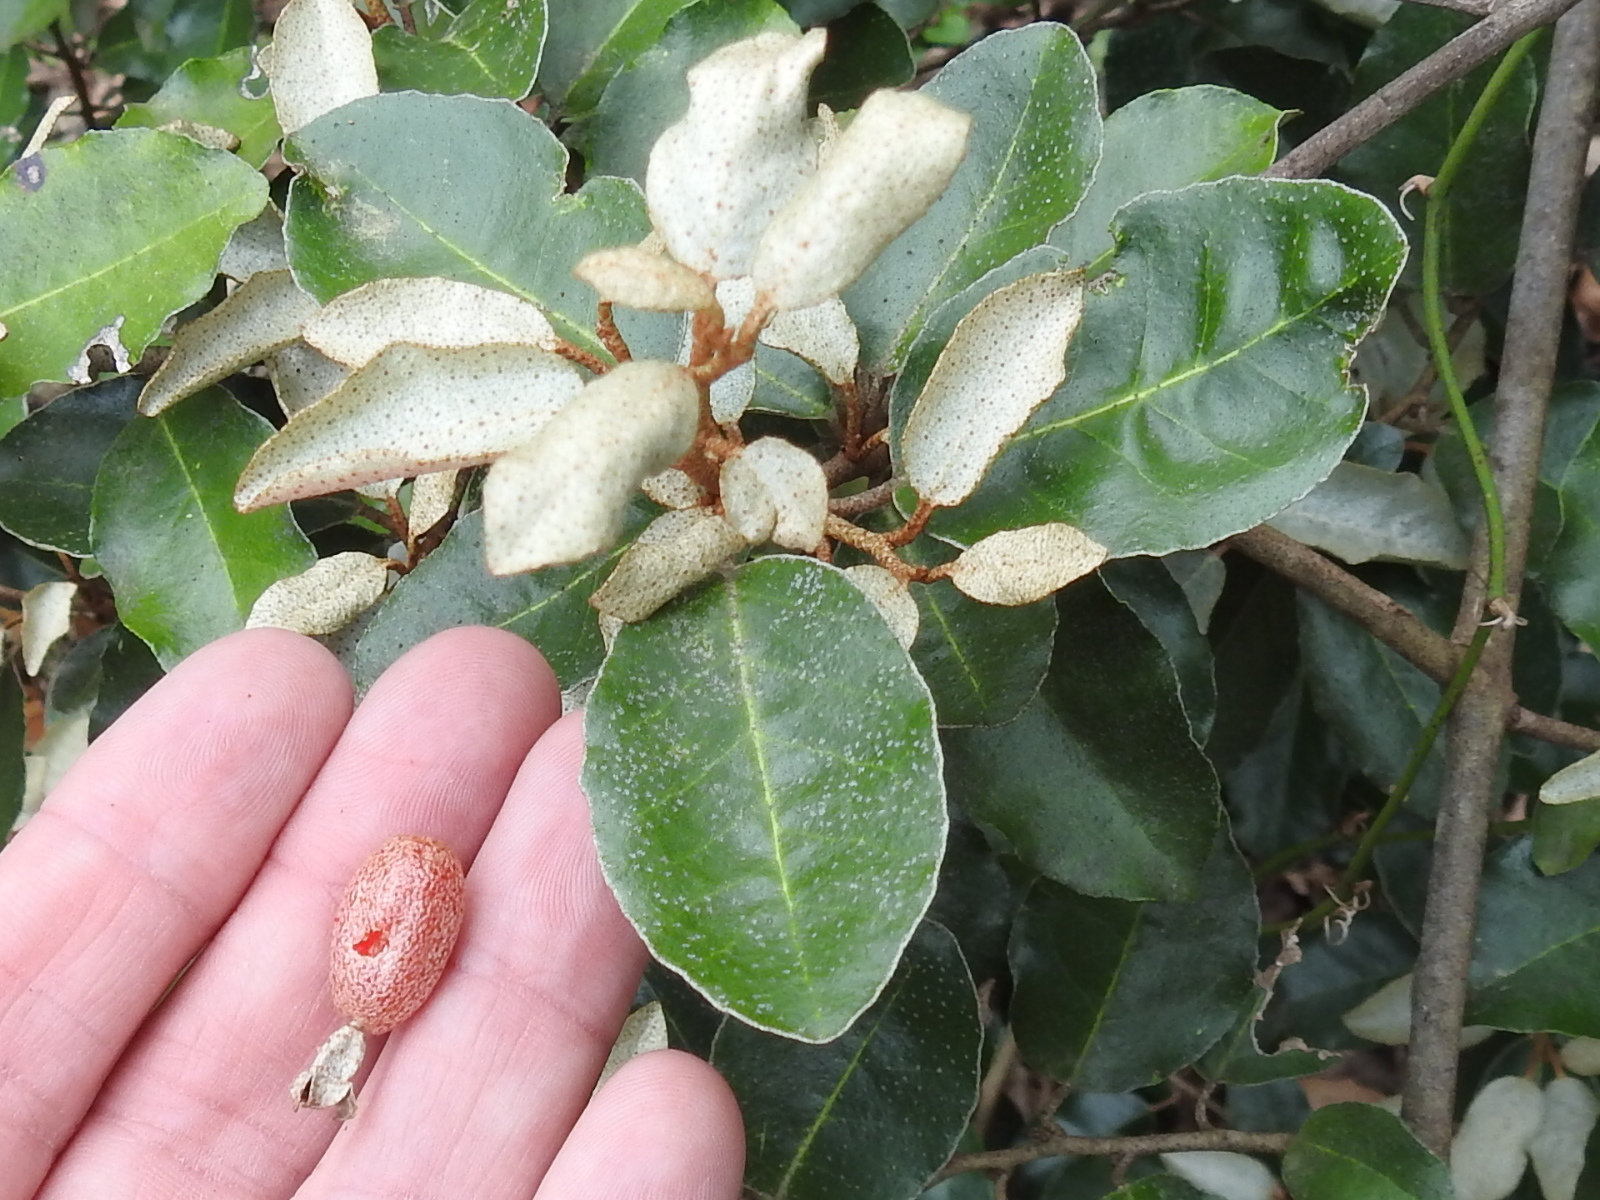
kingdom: Plantae
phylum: Tracheophyta
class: Magnoliopsida
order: Rosales
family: Elaeagnaceae
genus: Elaeagnus
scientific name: Elaeagnus pungens
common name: Spiny oleaster
